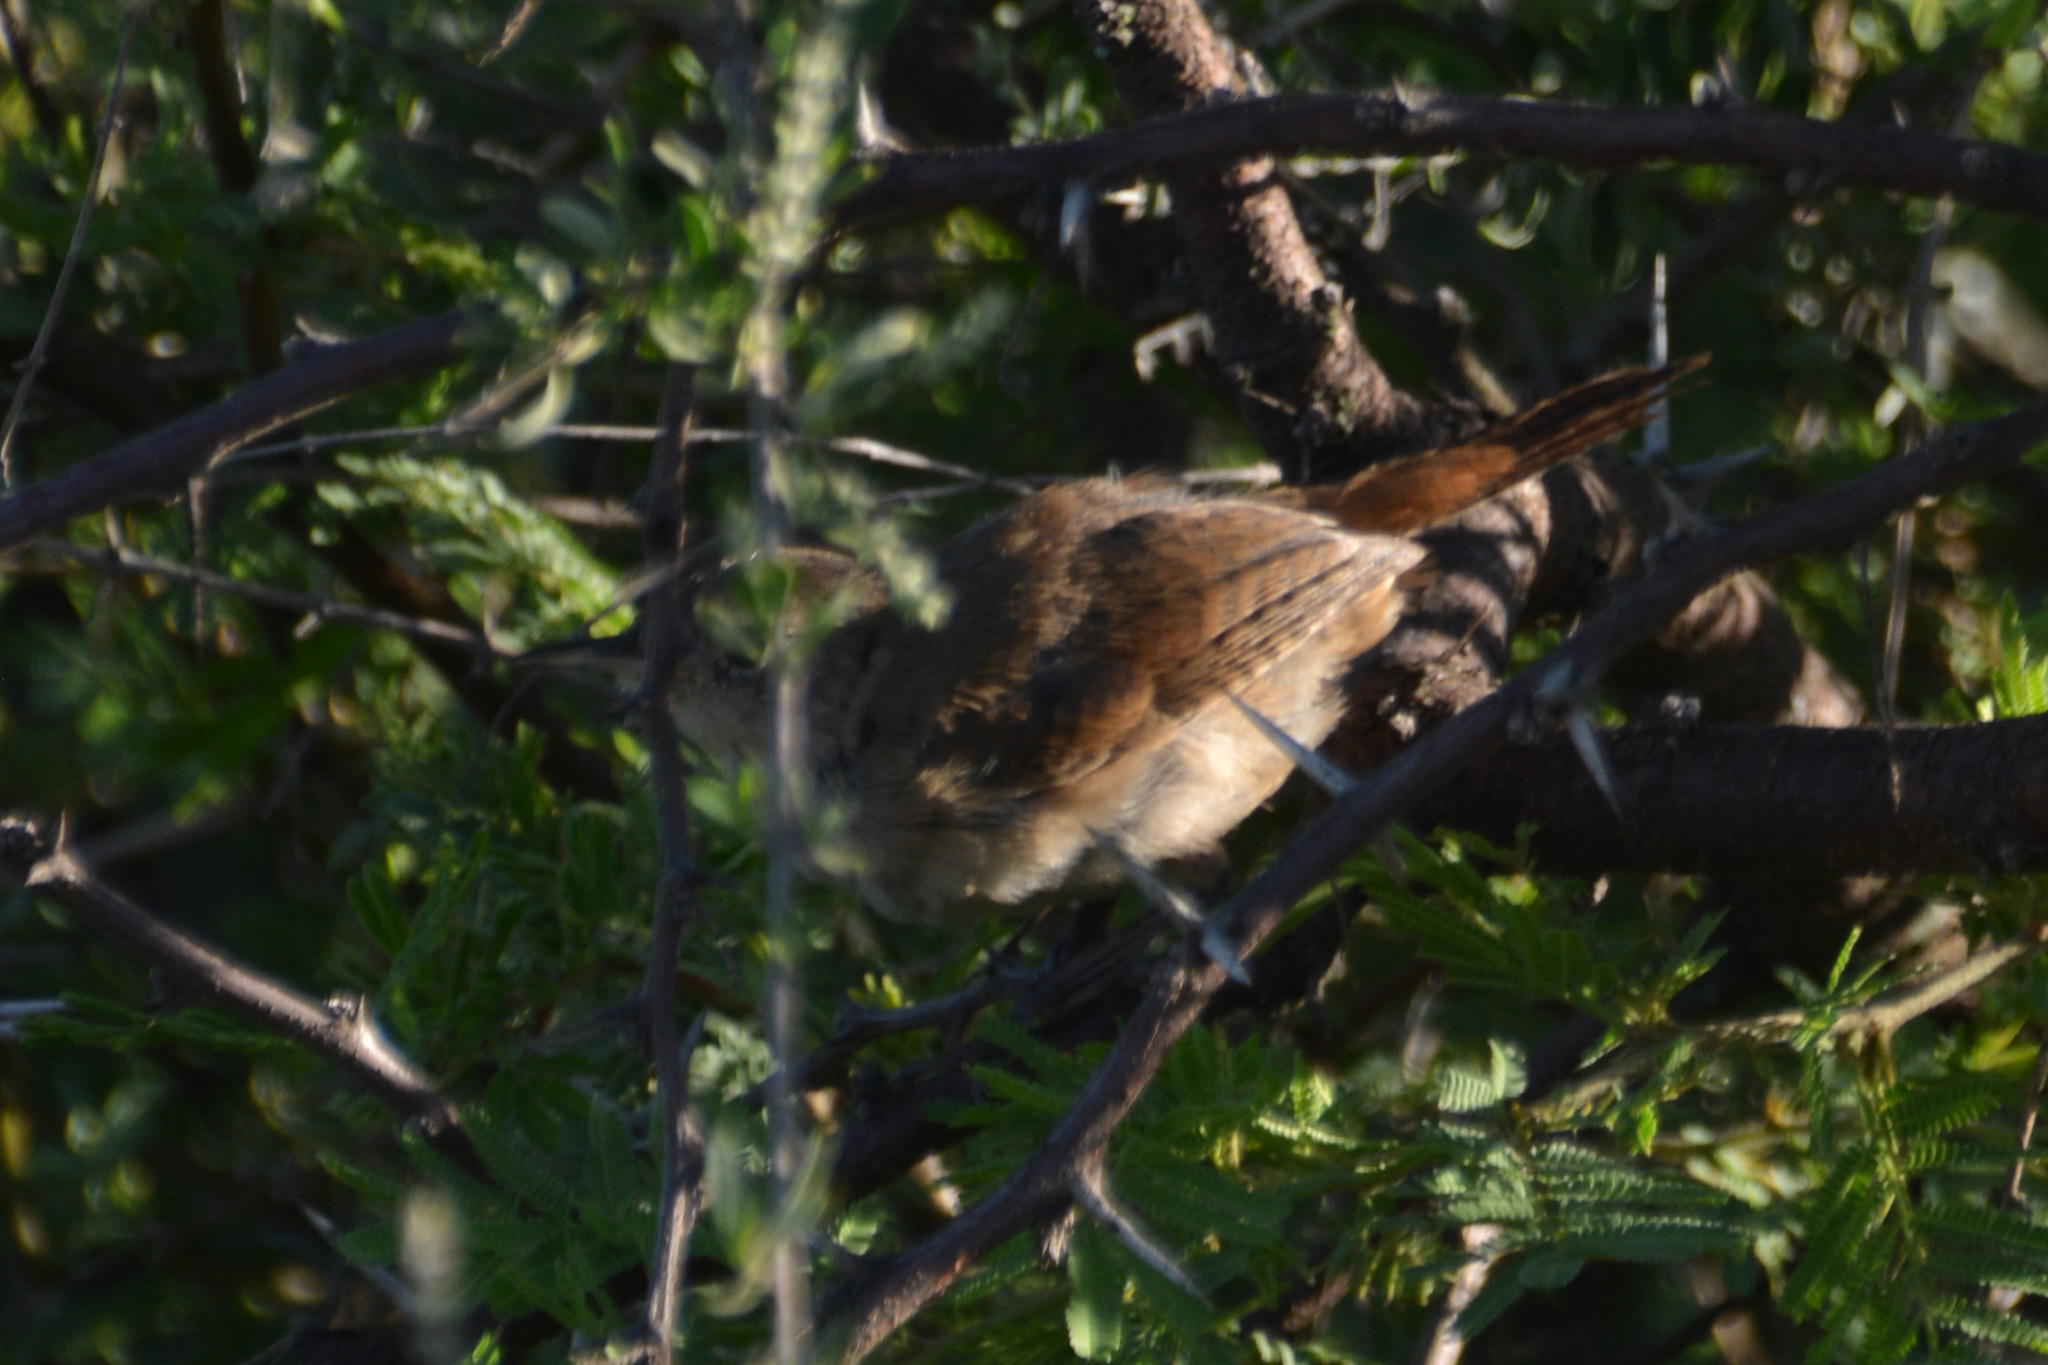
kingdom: Animalia
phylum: Chordata
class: Aves
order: Passeriformes
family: Troglodytidae
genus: Troglodytes
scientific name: Troglodytes aedon
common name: House wren
